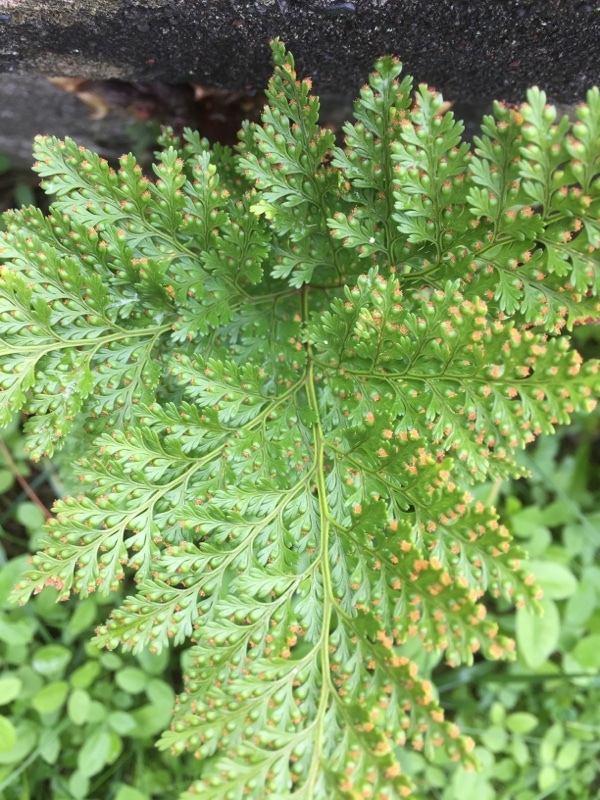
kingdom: Plantae
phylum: Tracheophyta
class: Polypodiopsida
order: Polypodiales
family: Davalliaceae
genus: Davallia
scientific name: Davallia canariensis
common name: Hare's-foot fern
